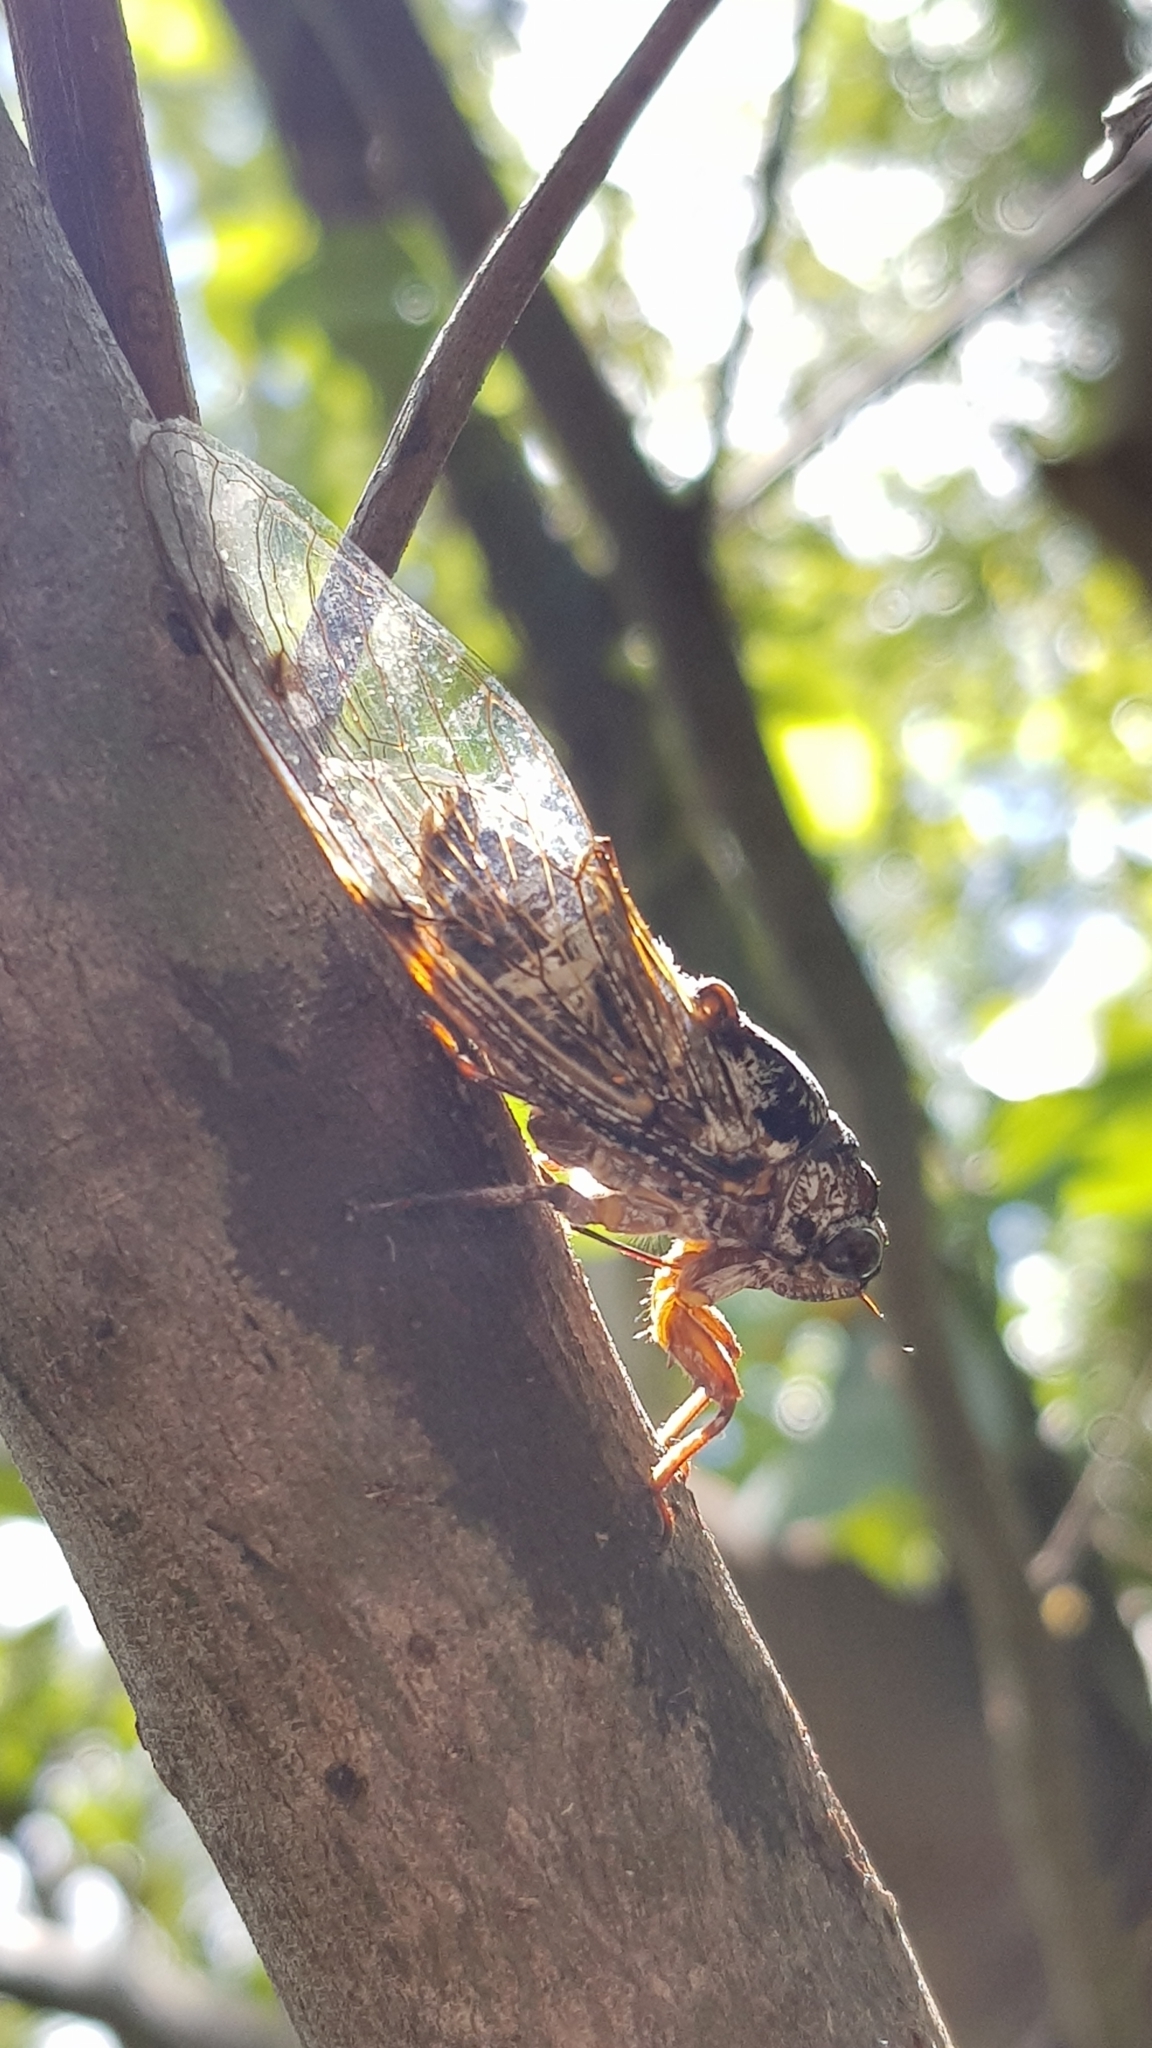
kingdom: Animalia
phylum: Arthropoda
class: Insecta
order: Hemiptera
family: Cicadidae
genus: Aleeta
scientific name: Aleeta curvicosta
